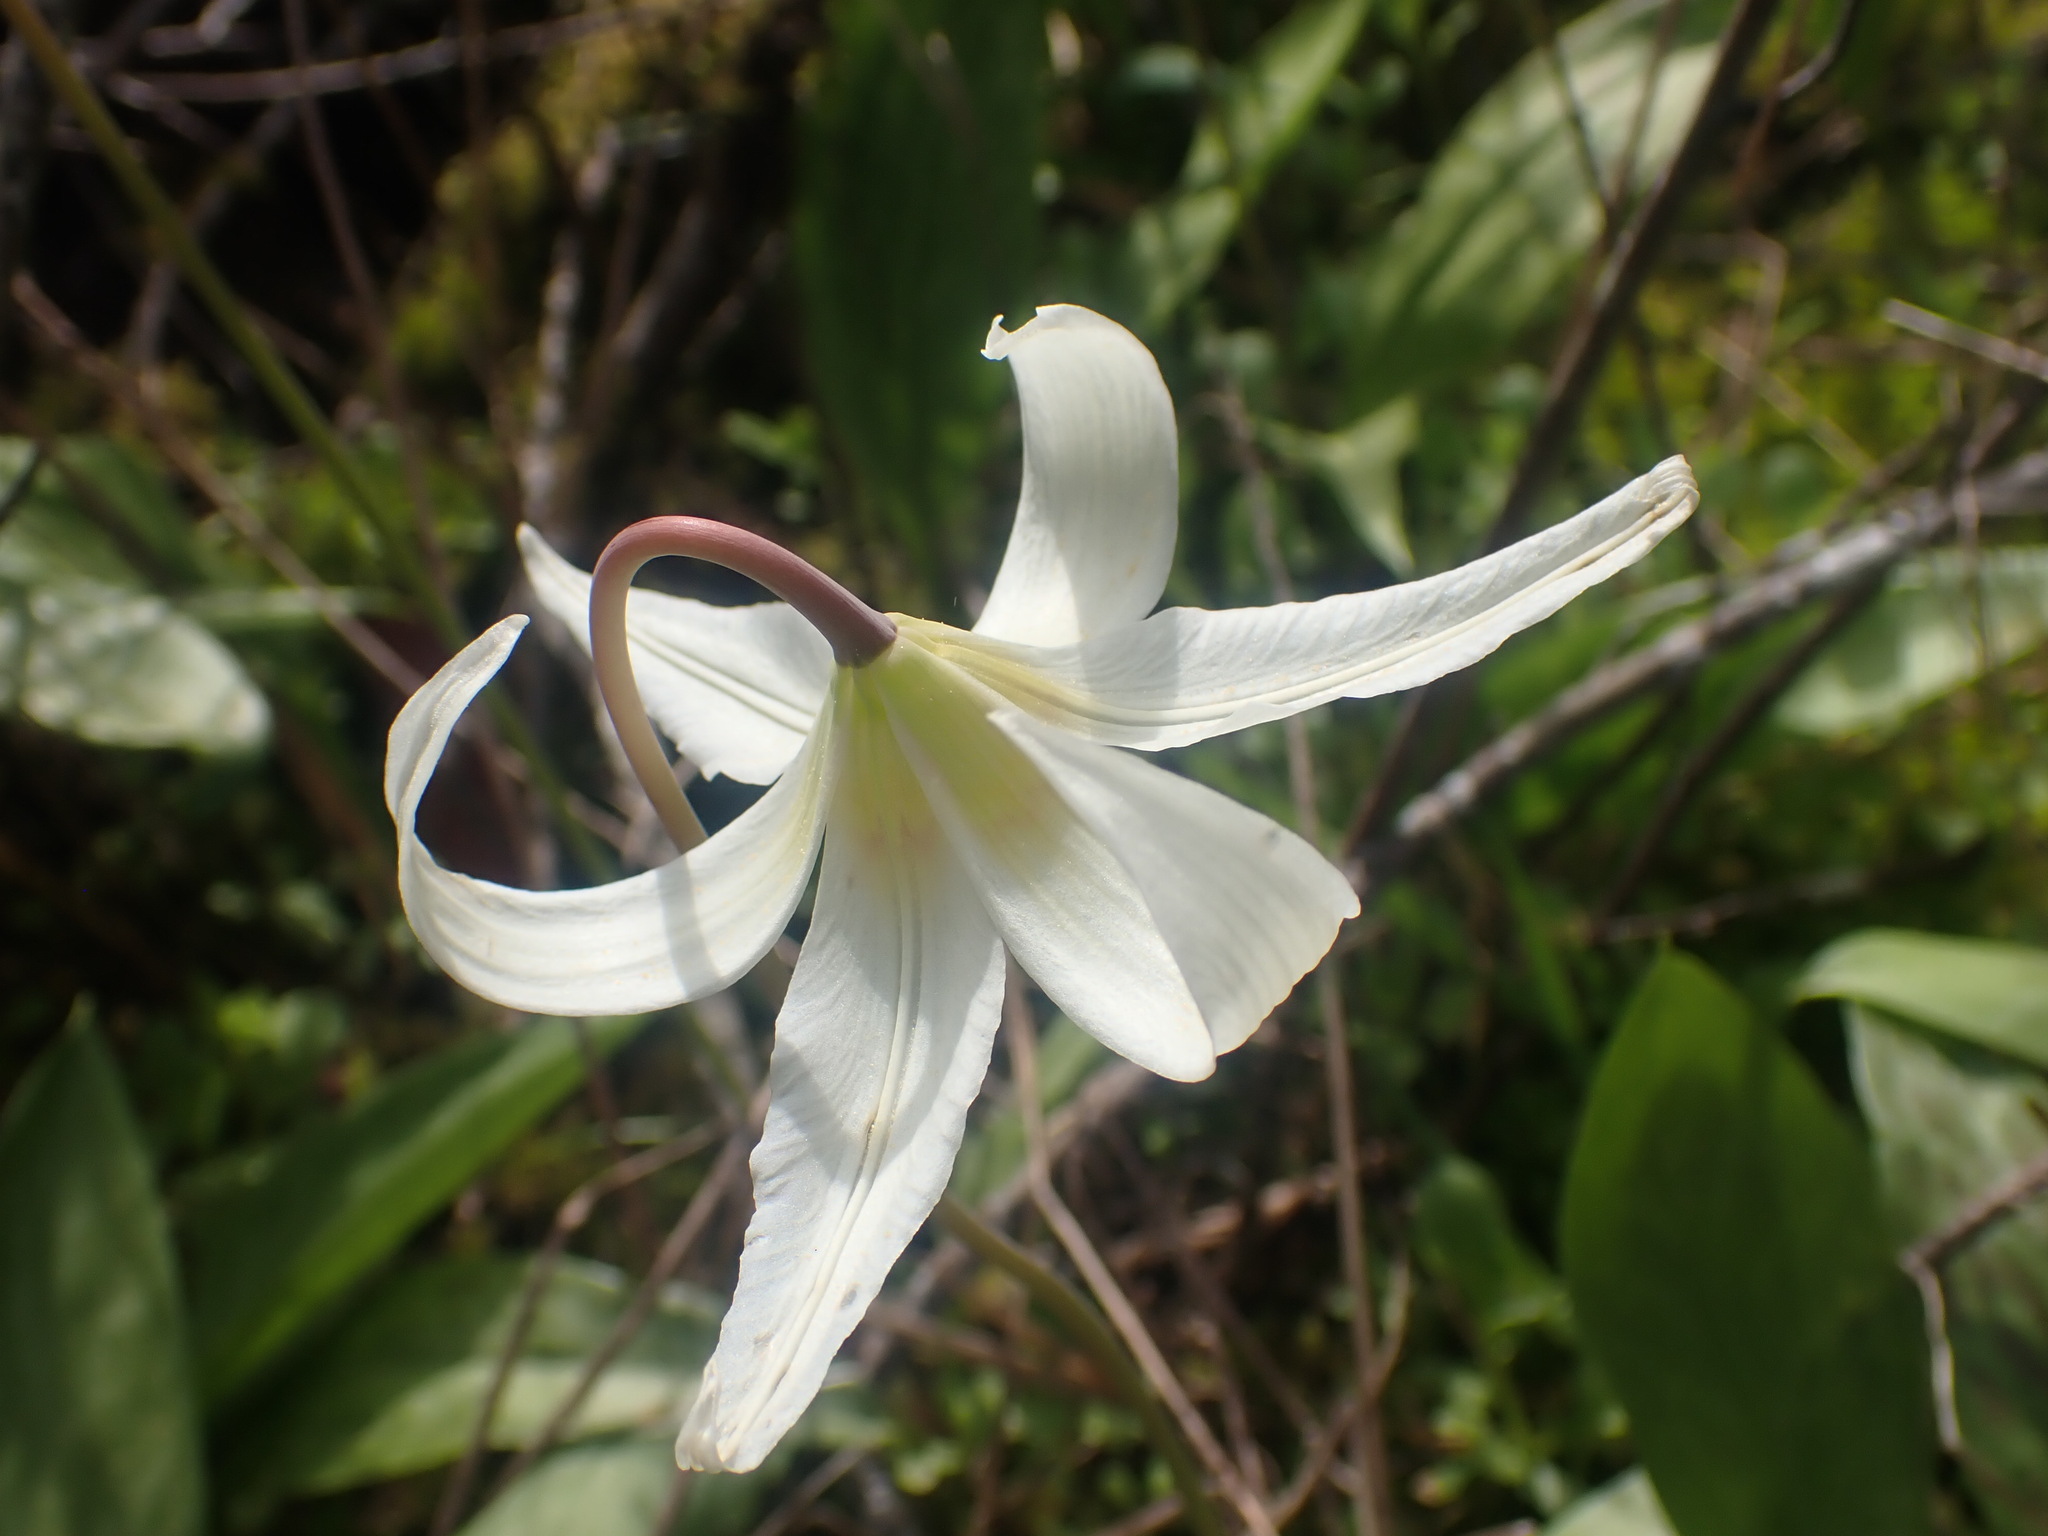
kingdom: Plantae
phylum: Tracheophyta
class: Liliopsida
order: Liliales
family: Liliaceae
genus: Erythronium
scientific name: Erythronium oregonum
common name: Giant adder's-tongue
